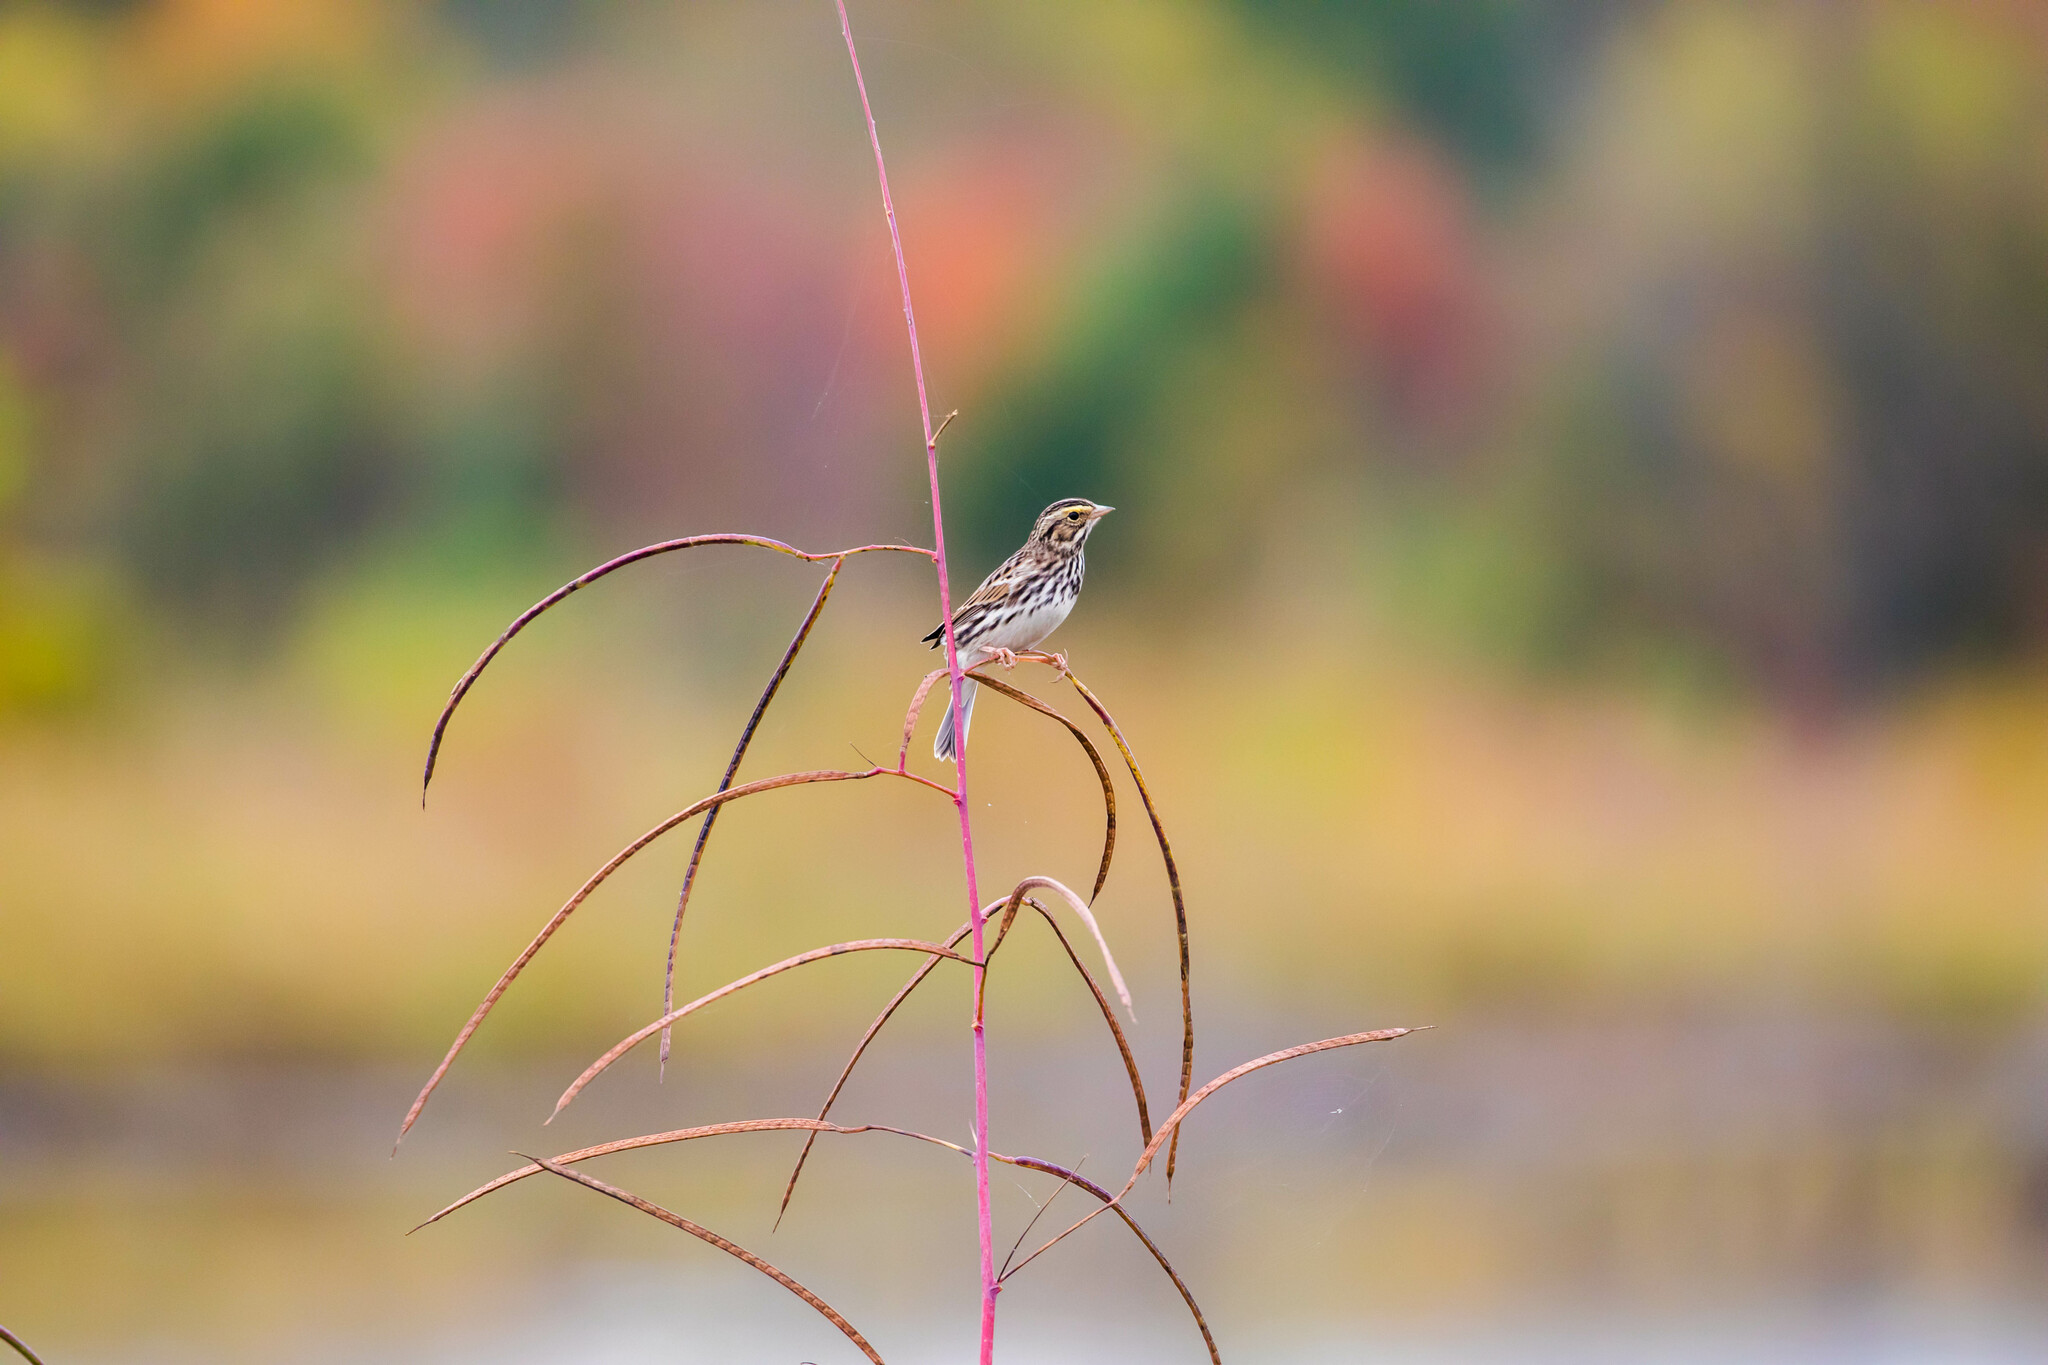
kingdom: Animalia
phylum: Chordata
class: Aves
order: Passeriformes
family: Passerellidae
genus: Passerculus
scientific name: Passerculus sandwichensis
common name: Savannah sparrow
